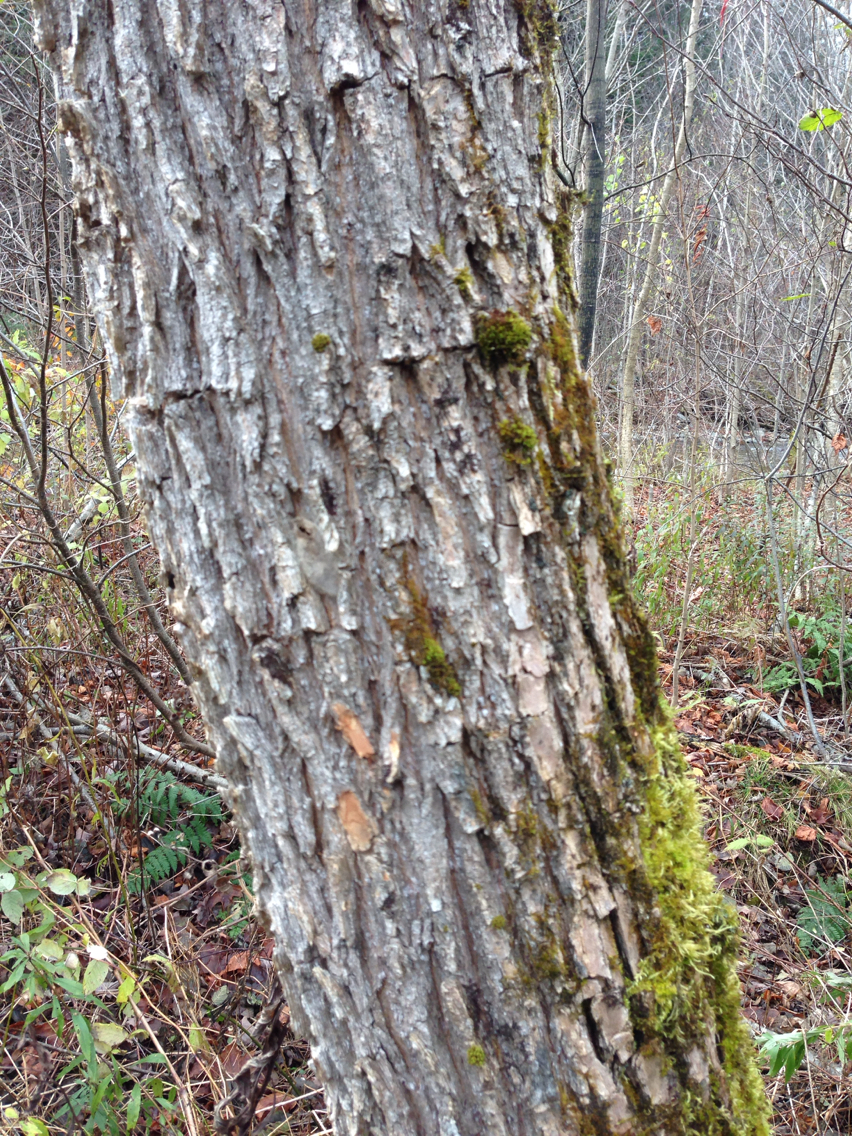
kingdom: Plantae
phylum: Tracheophyta
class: Magnoliopsida
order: Rosales
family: Ulmaceae
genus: Ulmus
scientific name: Ulmus americana
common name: American elm
